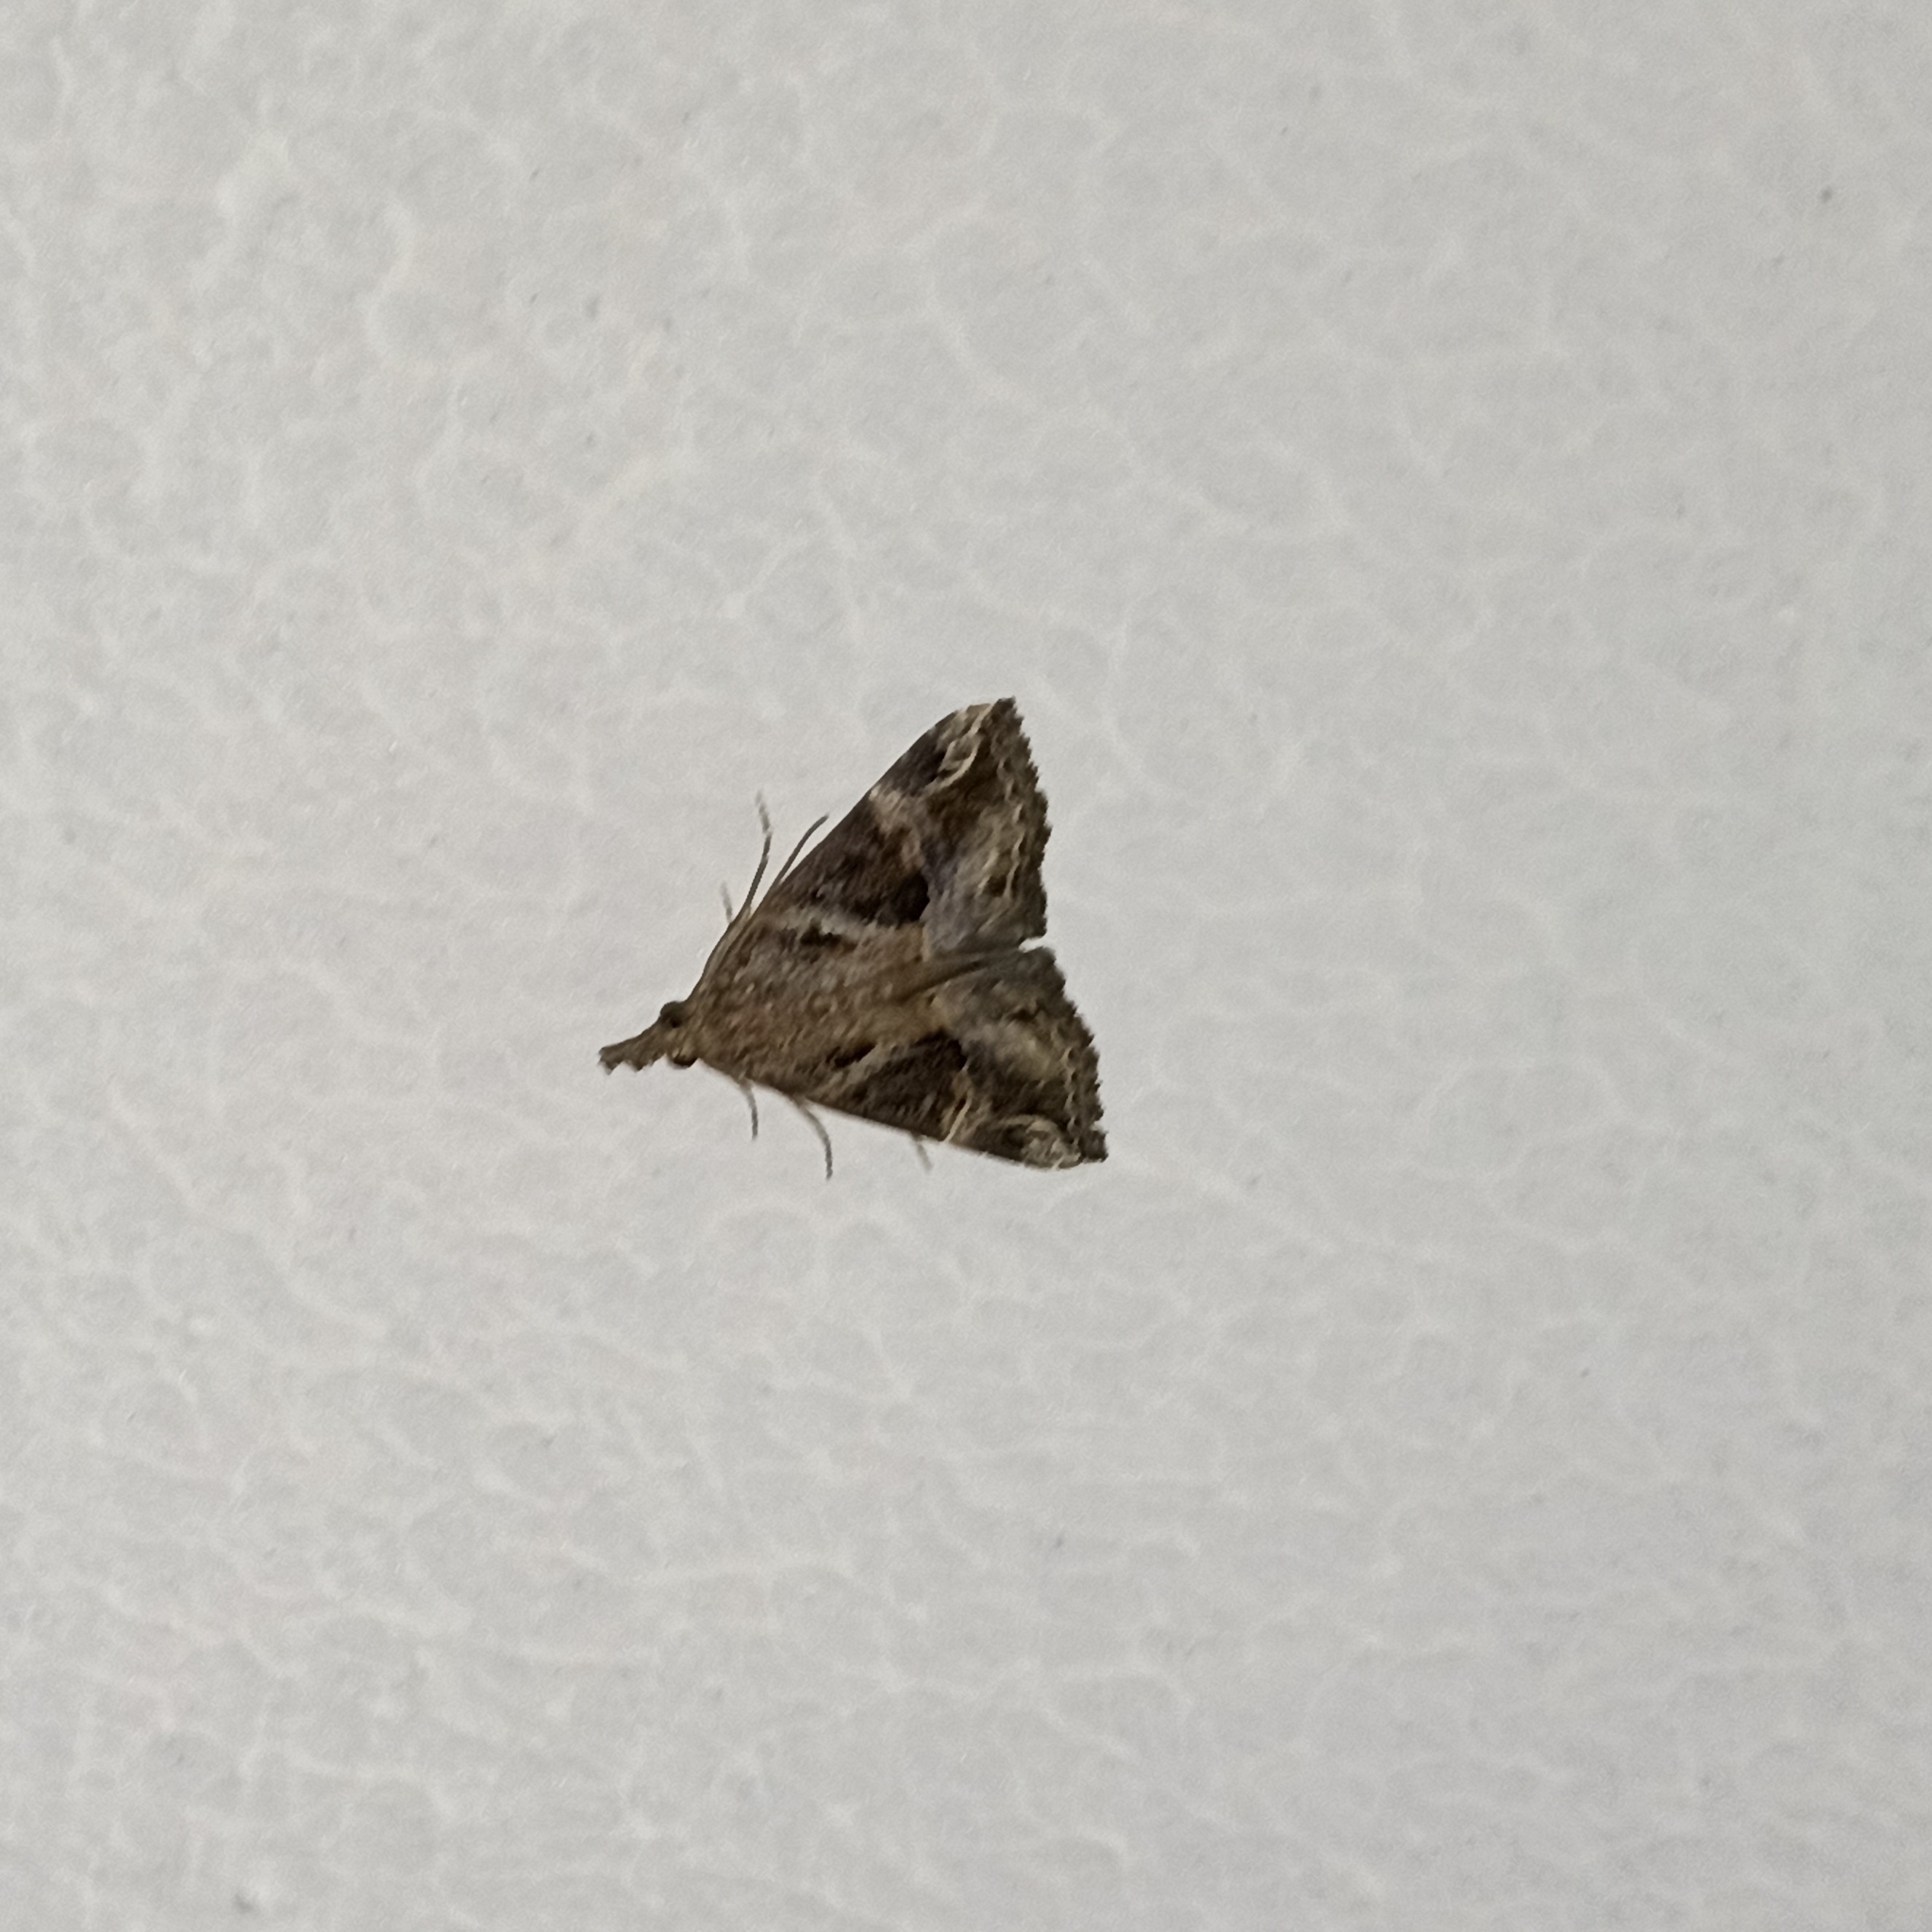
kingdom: Animalia
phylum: Arthropoda
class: Insecta
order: Lepidoptera
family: Erebidae
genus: Hypena
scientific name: Hypena commixtalis
